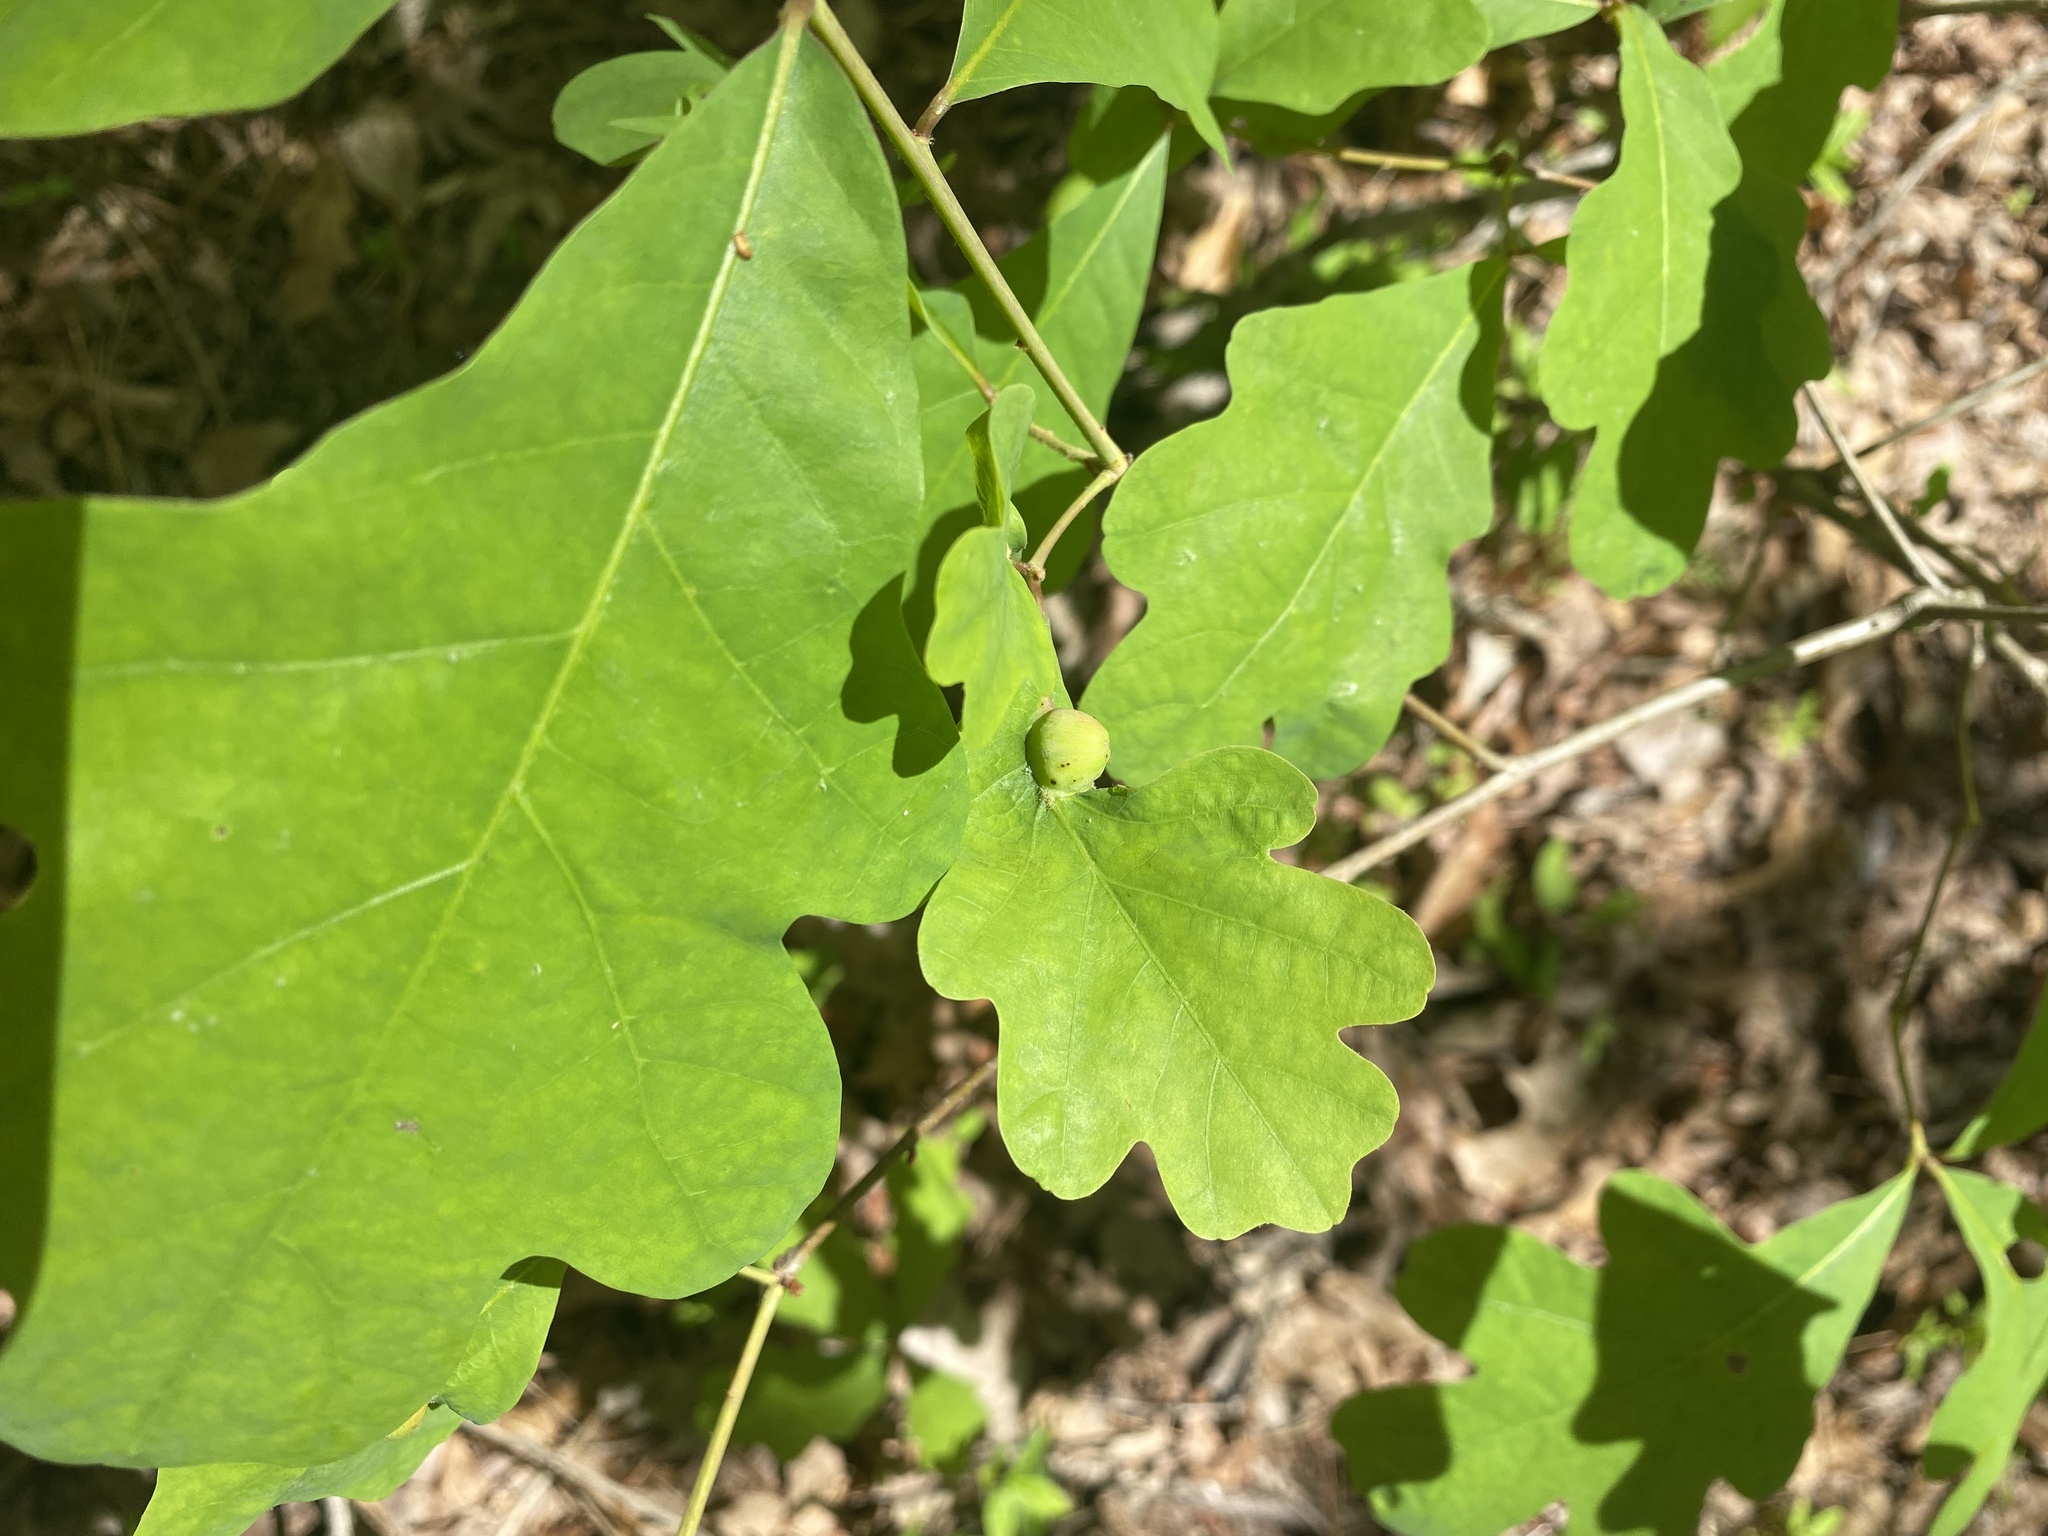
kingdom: Animalia
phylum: Arthropoda
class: Insecta
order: Hymenoptera
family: Cynipidae
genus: Andricus
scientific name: Andricus
